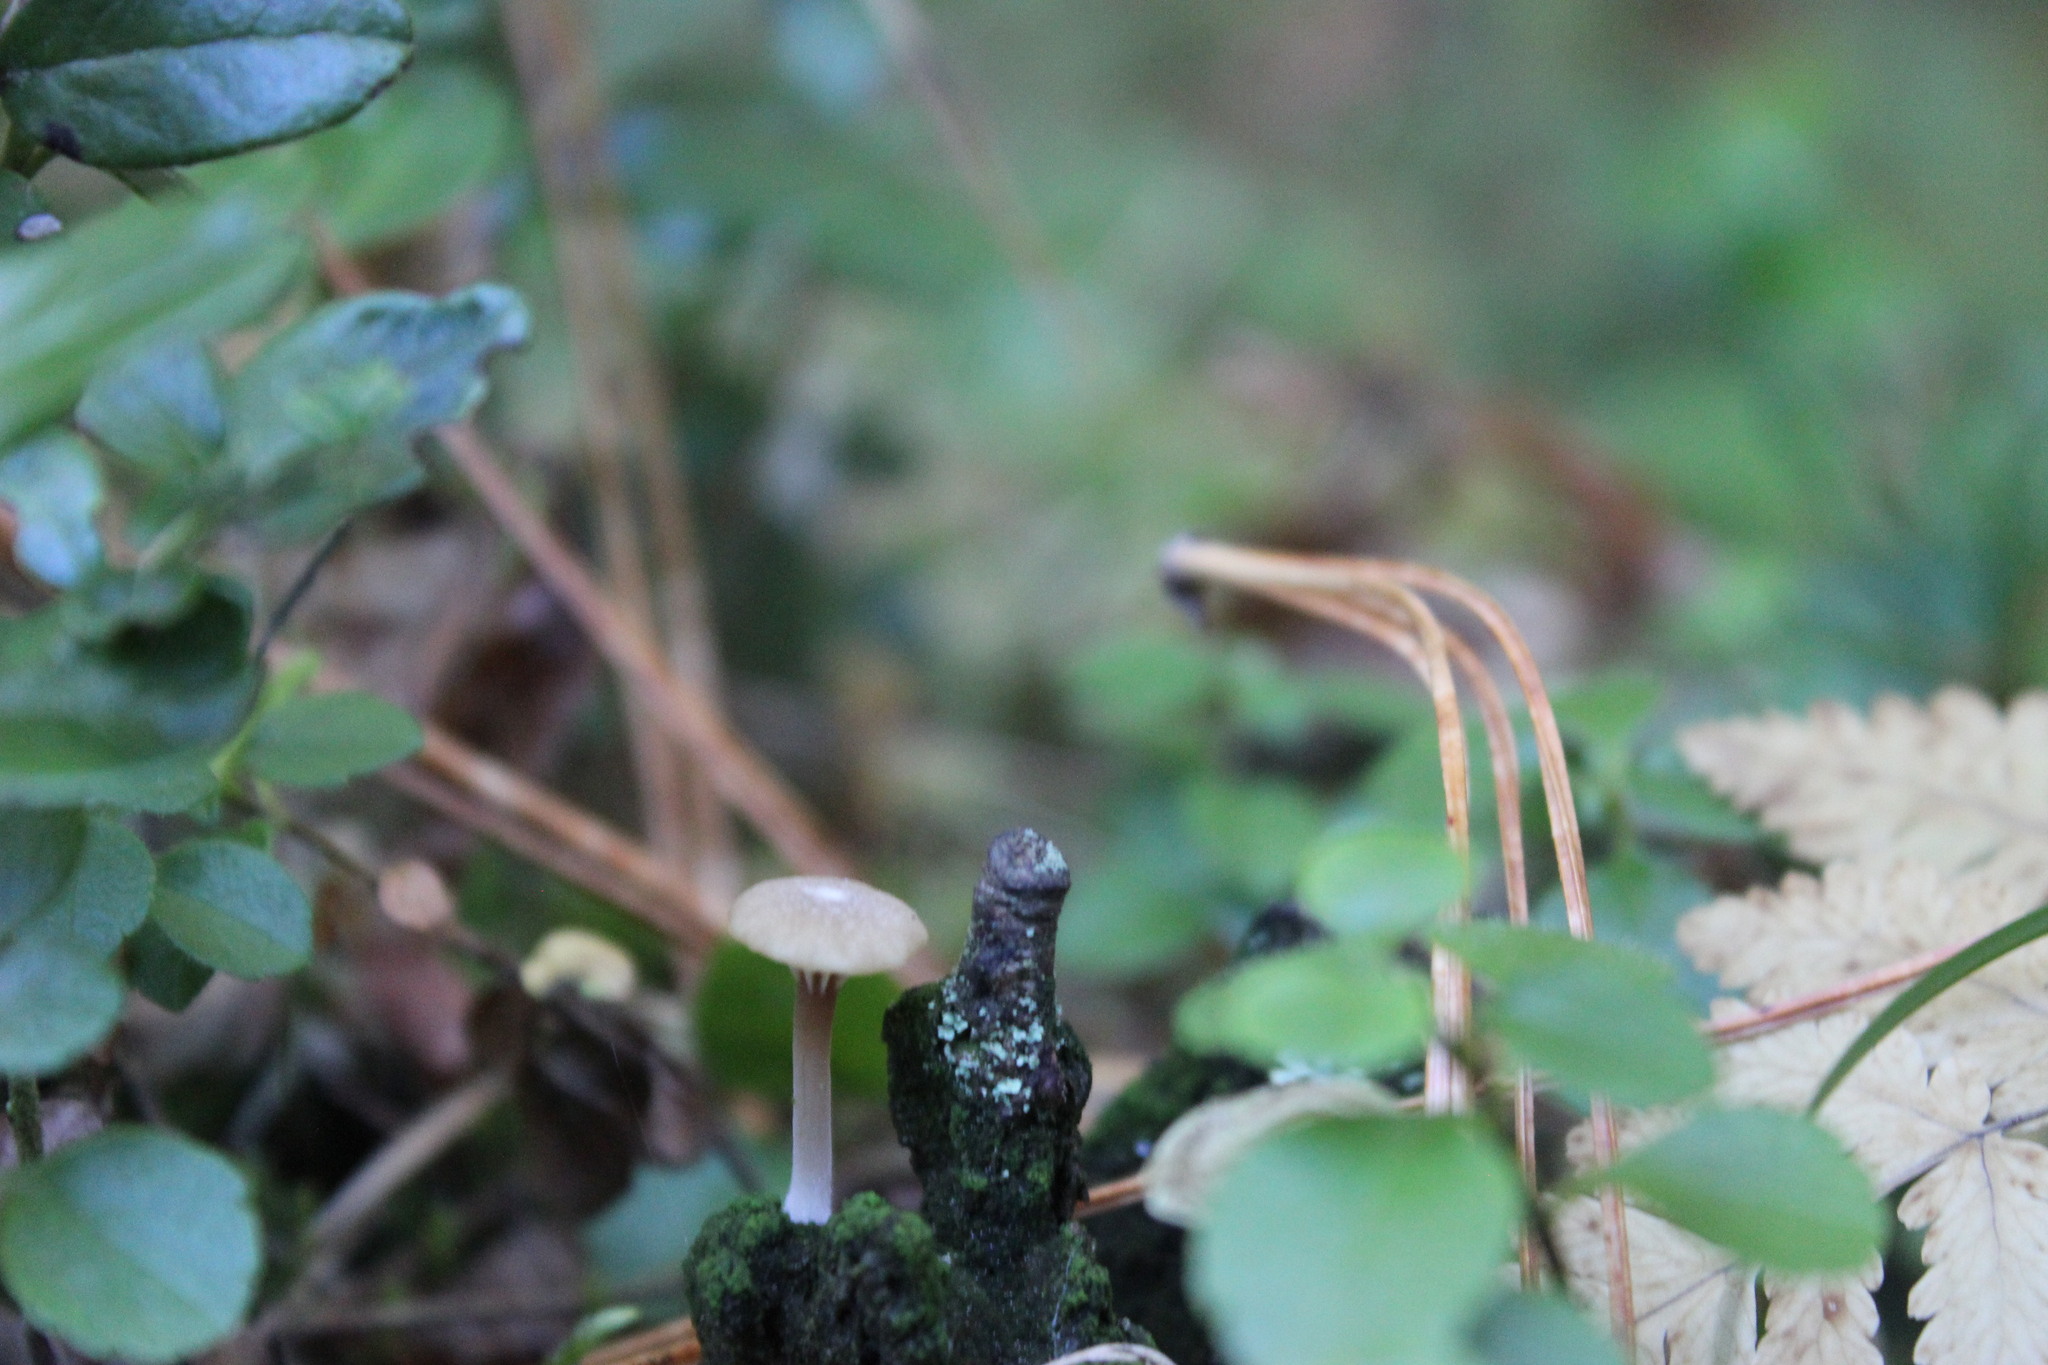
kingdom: Fungi
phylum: Basidiomycota
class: Agaricomycetes
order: Agaricales
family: Hygrophoraceae
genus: Lichenomphalia
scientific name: Lichenomphalia
